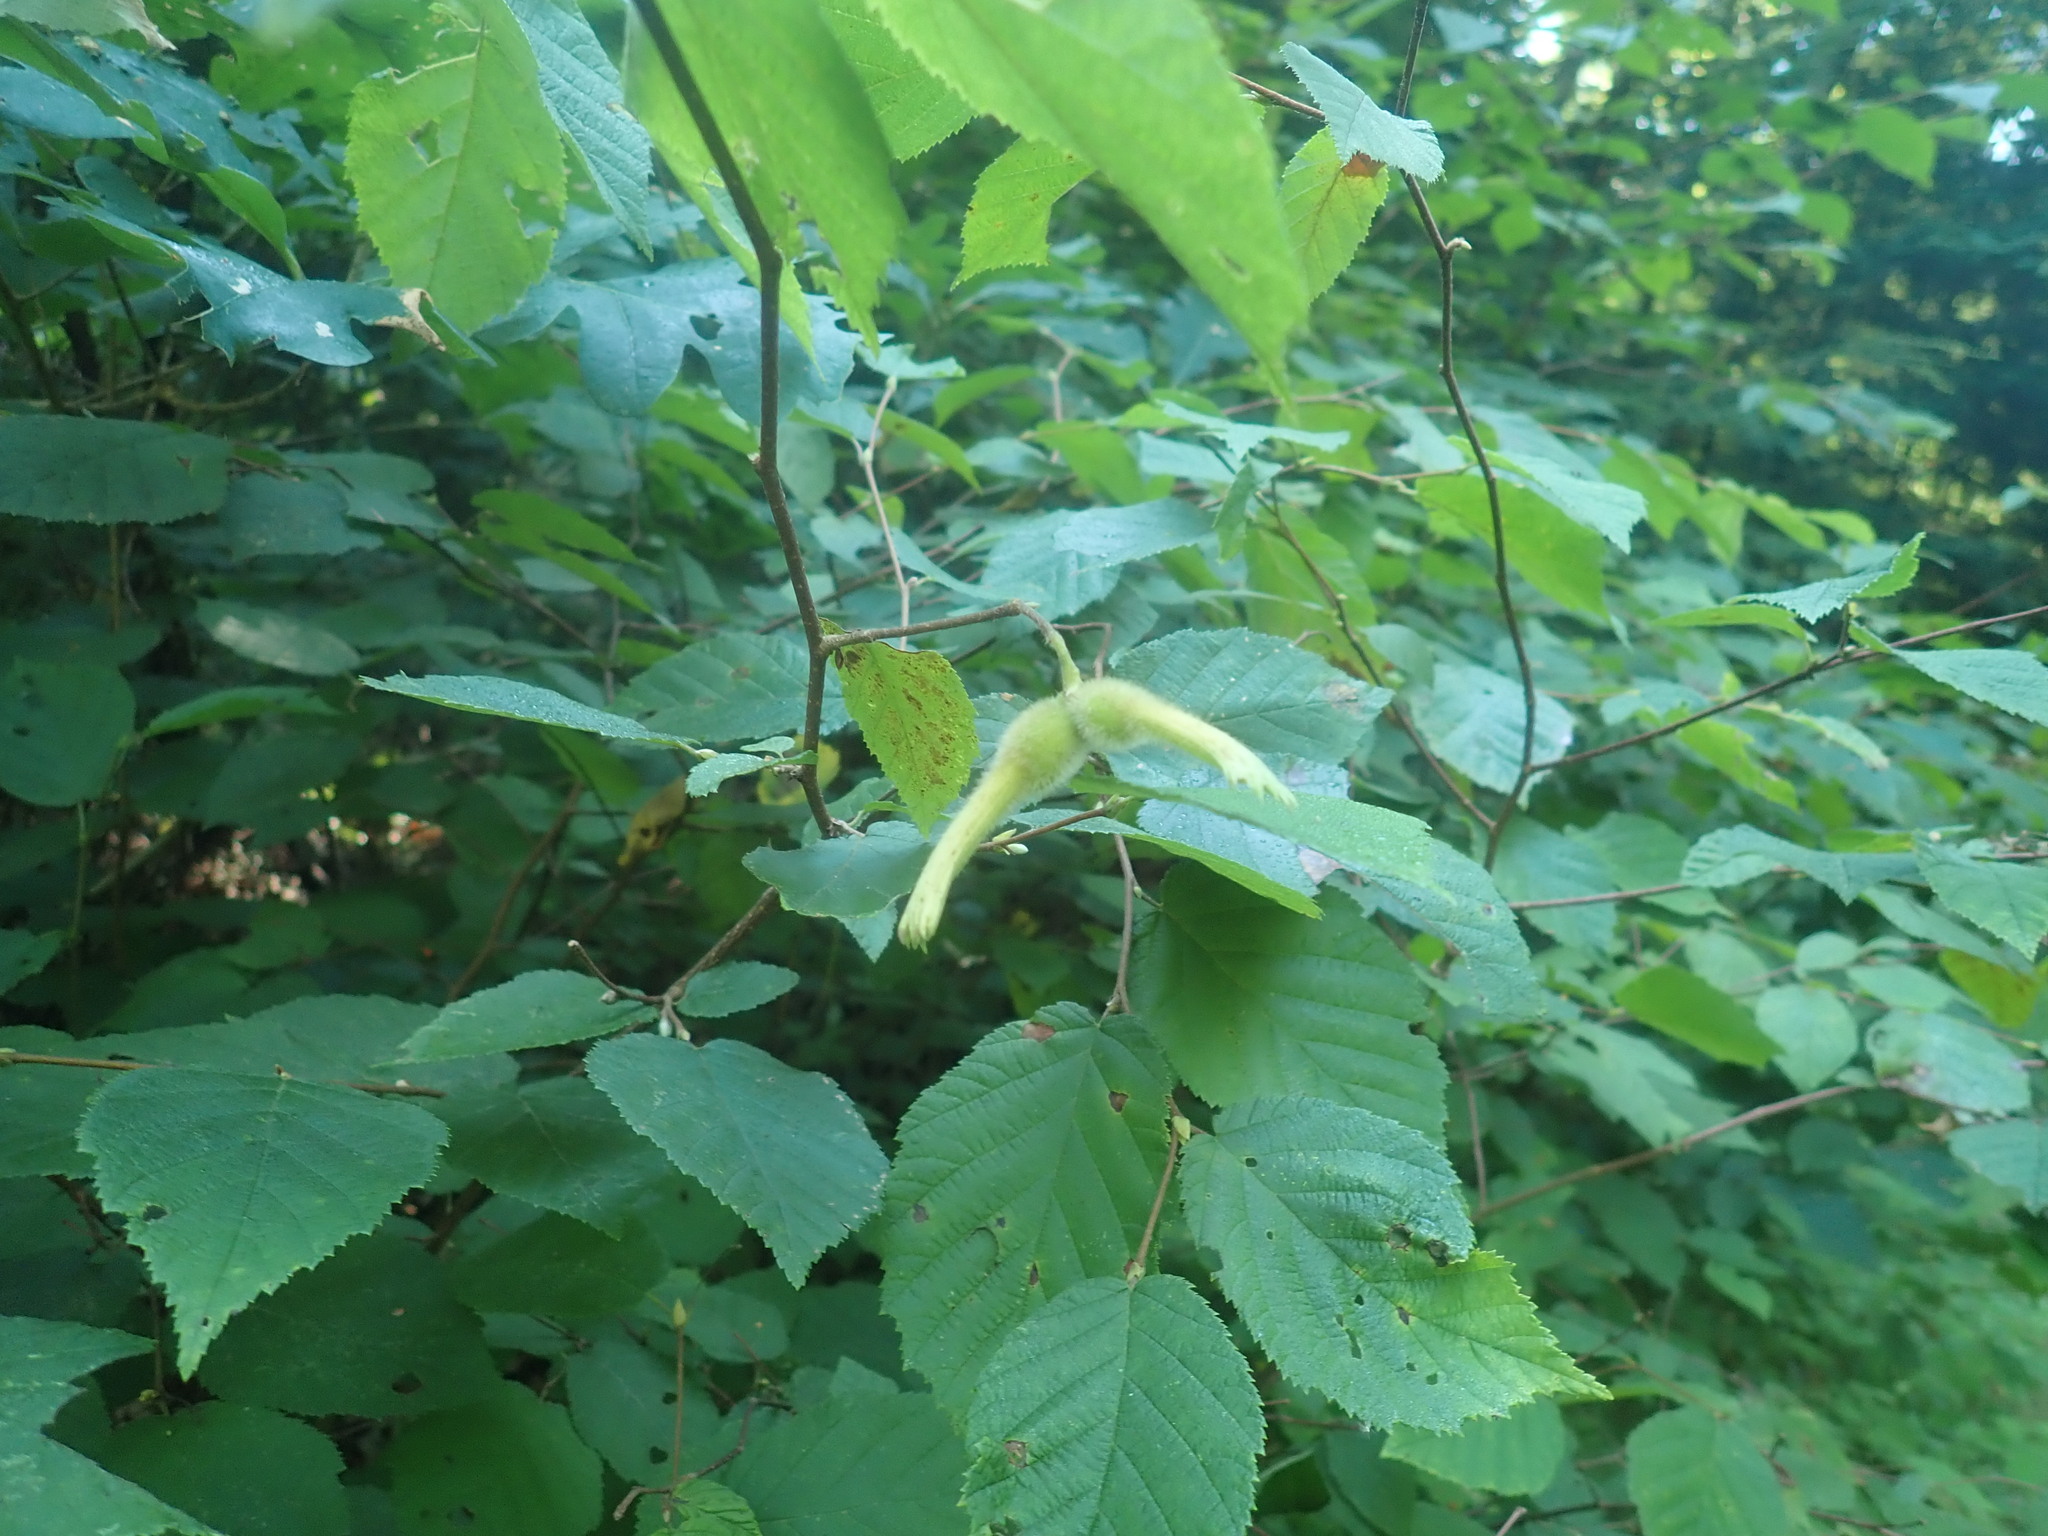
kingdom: Plantae
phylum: Tracheophyta
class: Magnoliopsida
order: Fagales
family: Betulaceae
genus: Corylus
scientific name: Corylus cornuta
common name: Beaked hazel
